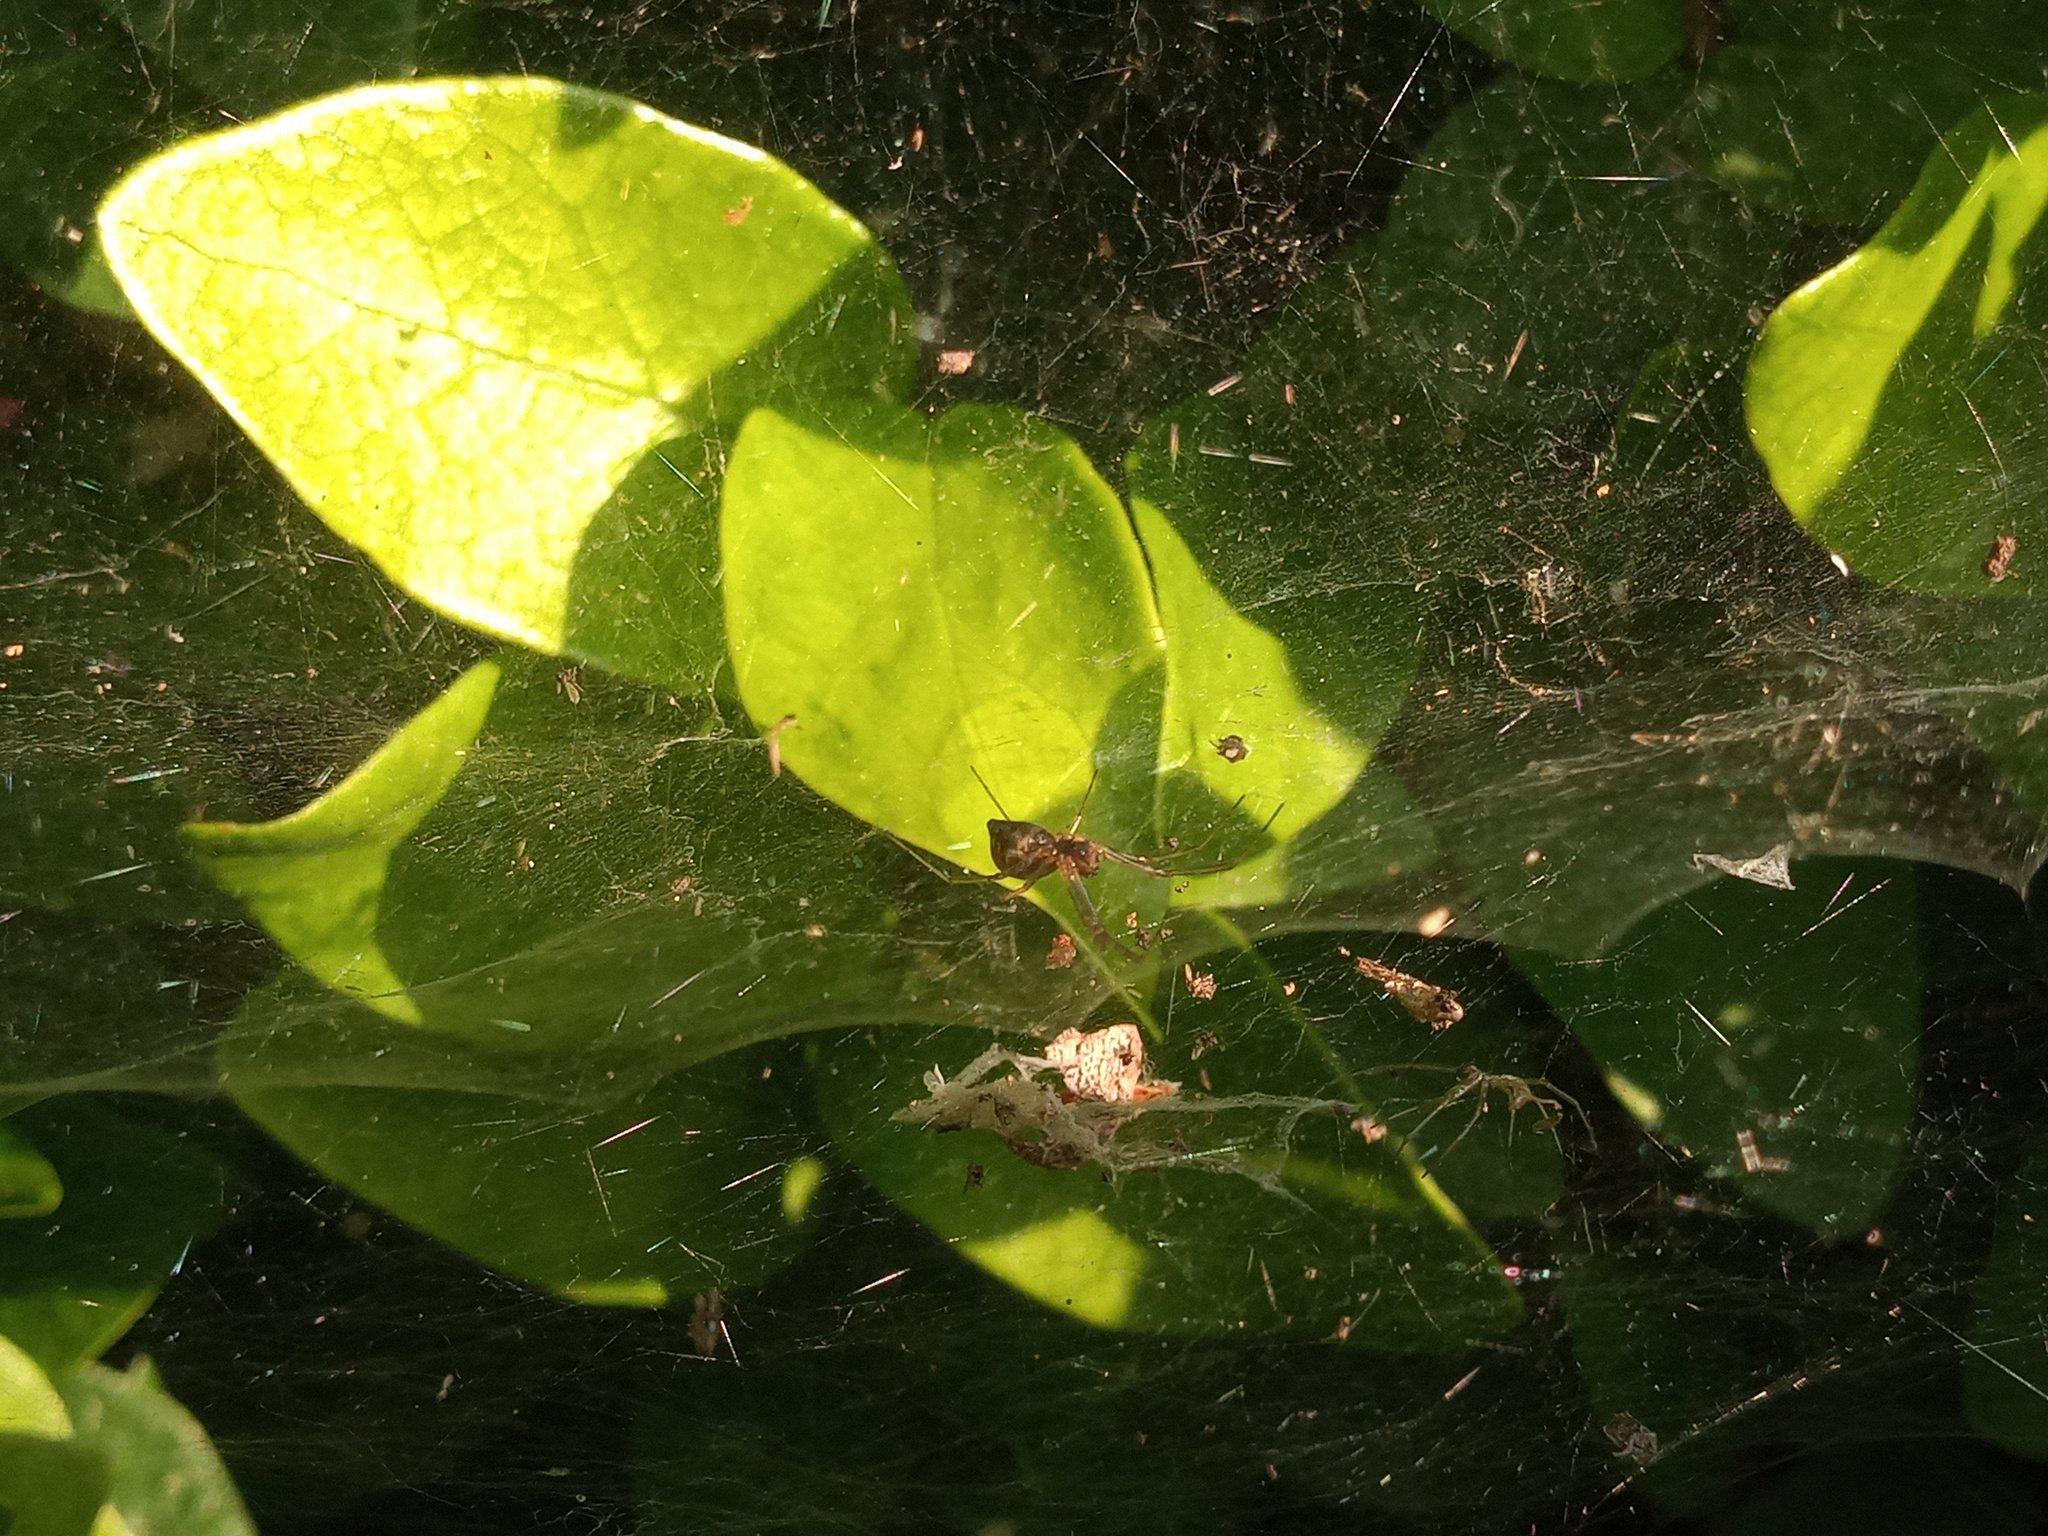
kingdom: Animalia
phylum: Arthropoda
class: Arachnida
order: Araneae
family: Linyphiidae
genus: Frontinella
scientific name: Frontinella pyramitela
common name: Bowl-and-doily spider
